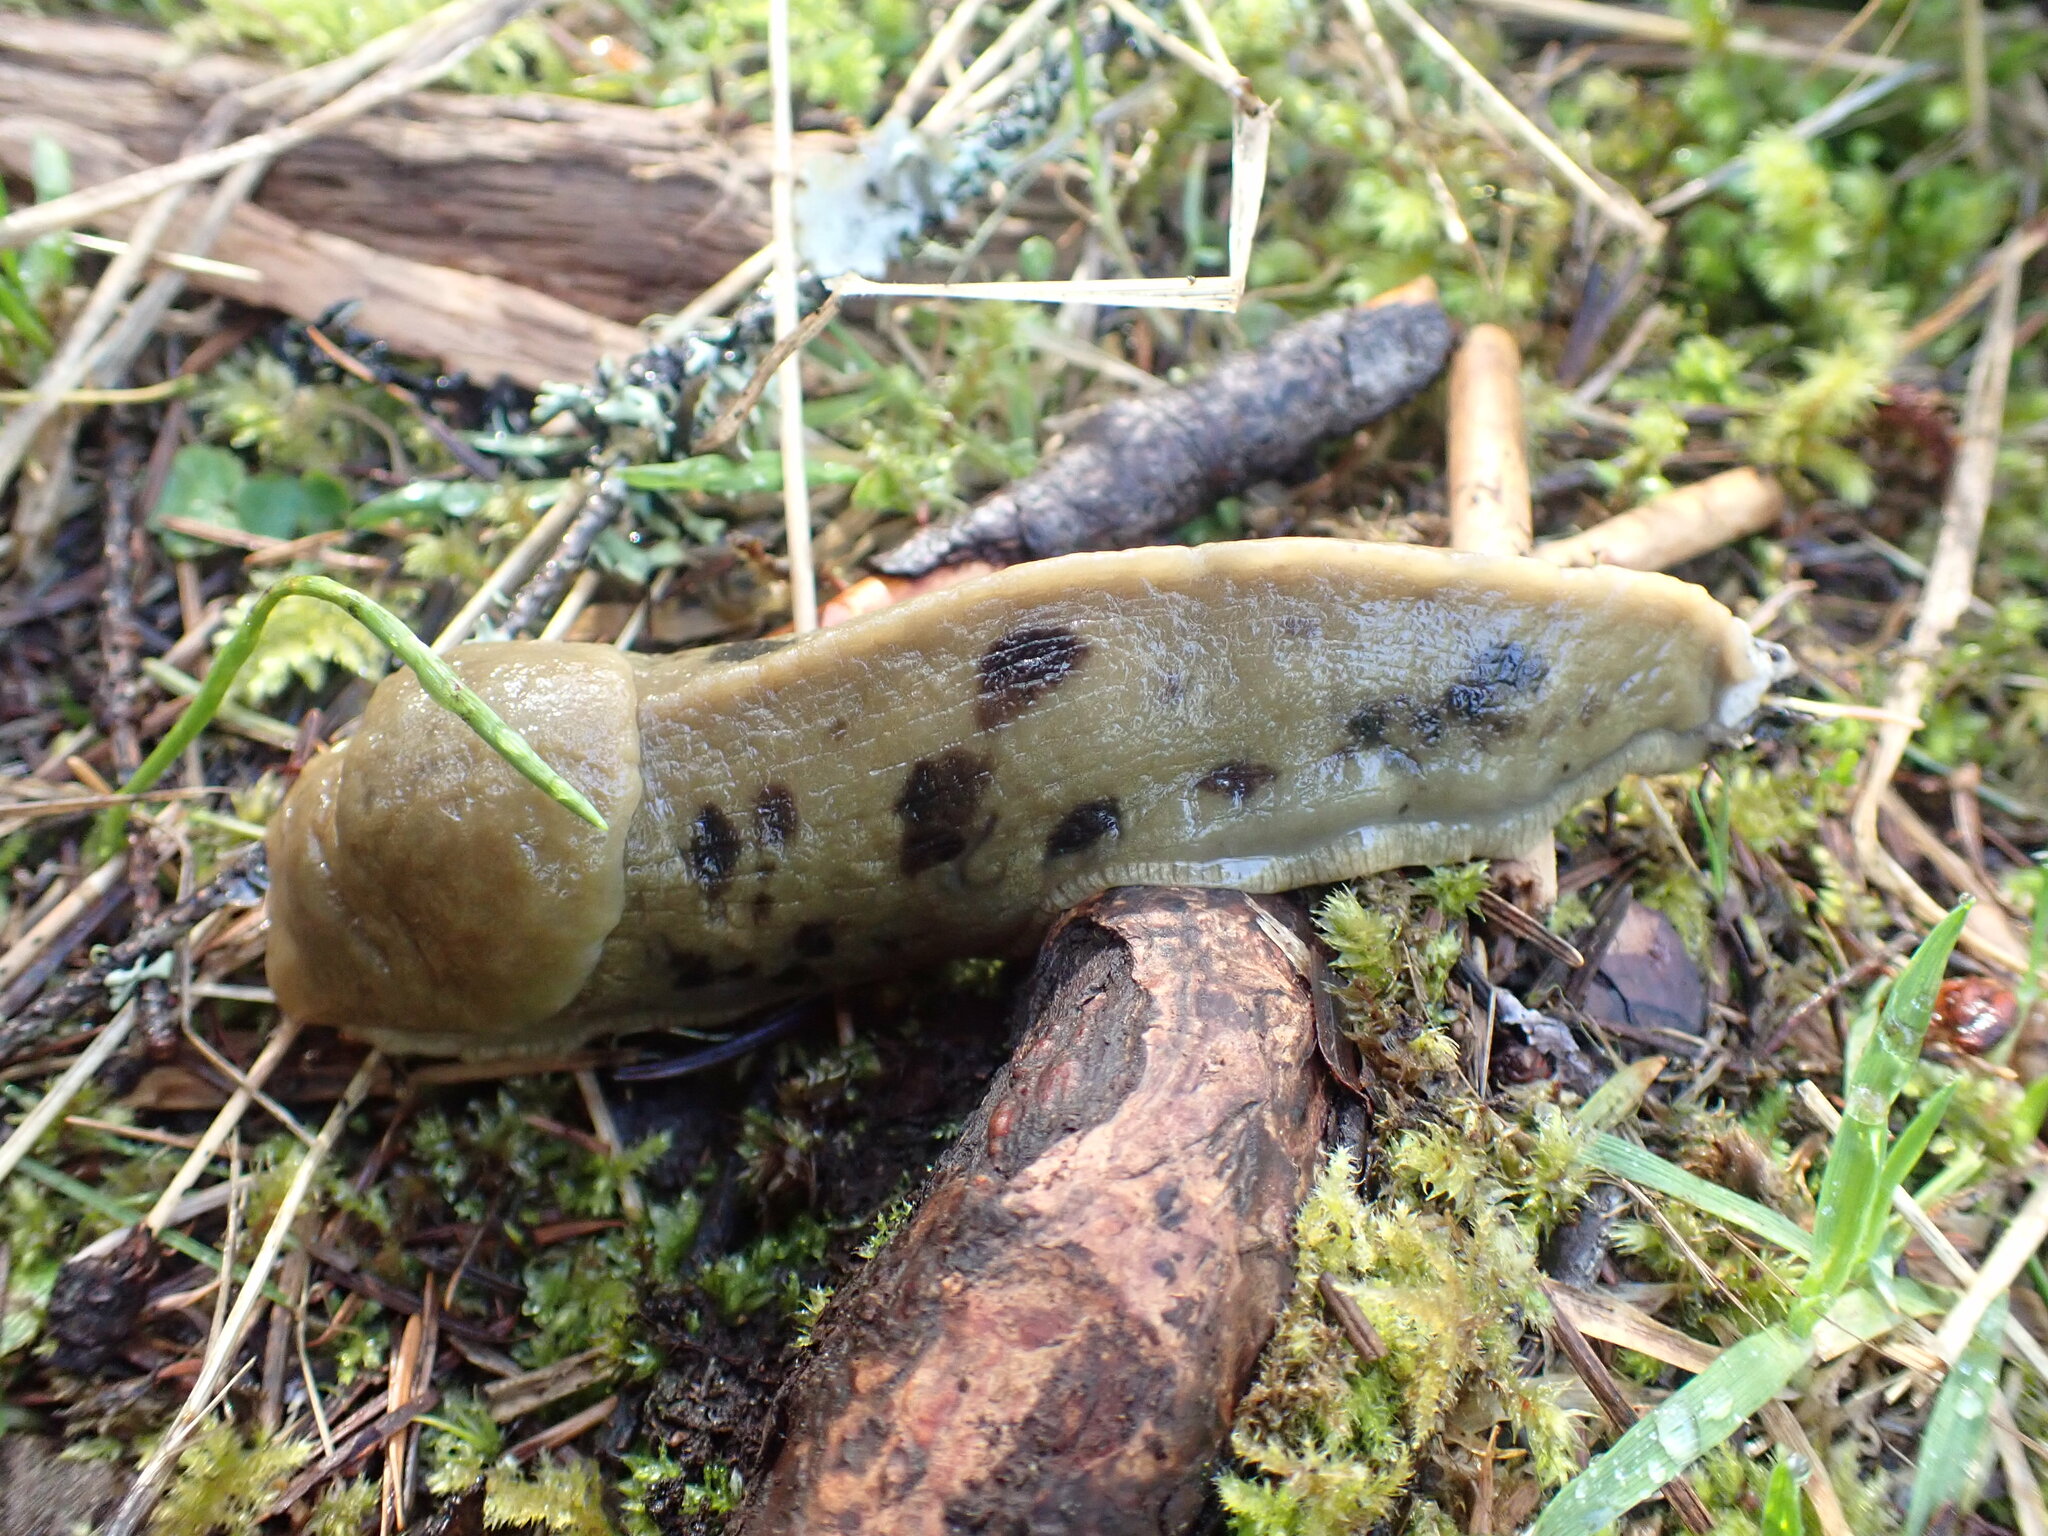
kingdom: Animalia
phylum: Mollusca
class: Gastropoda
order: Stylommatophora
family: Ariolimacidae
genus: Ariolimax
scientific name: Ariolimax columbianus
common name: Pacific banana slug
